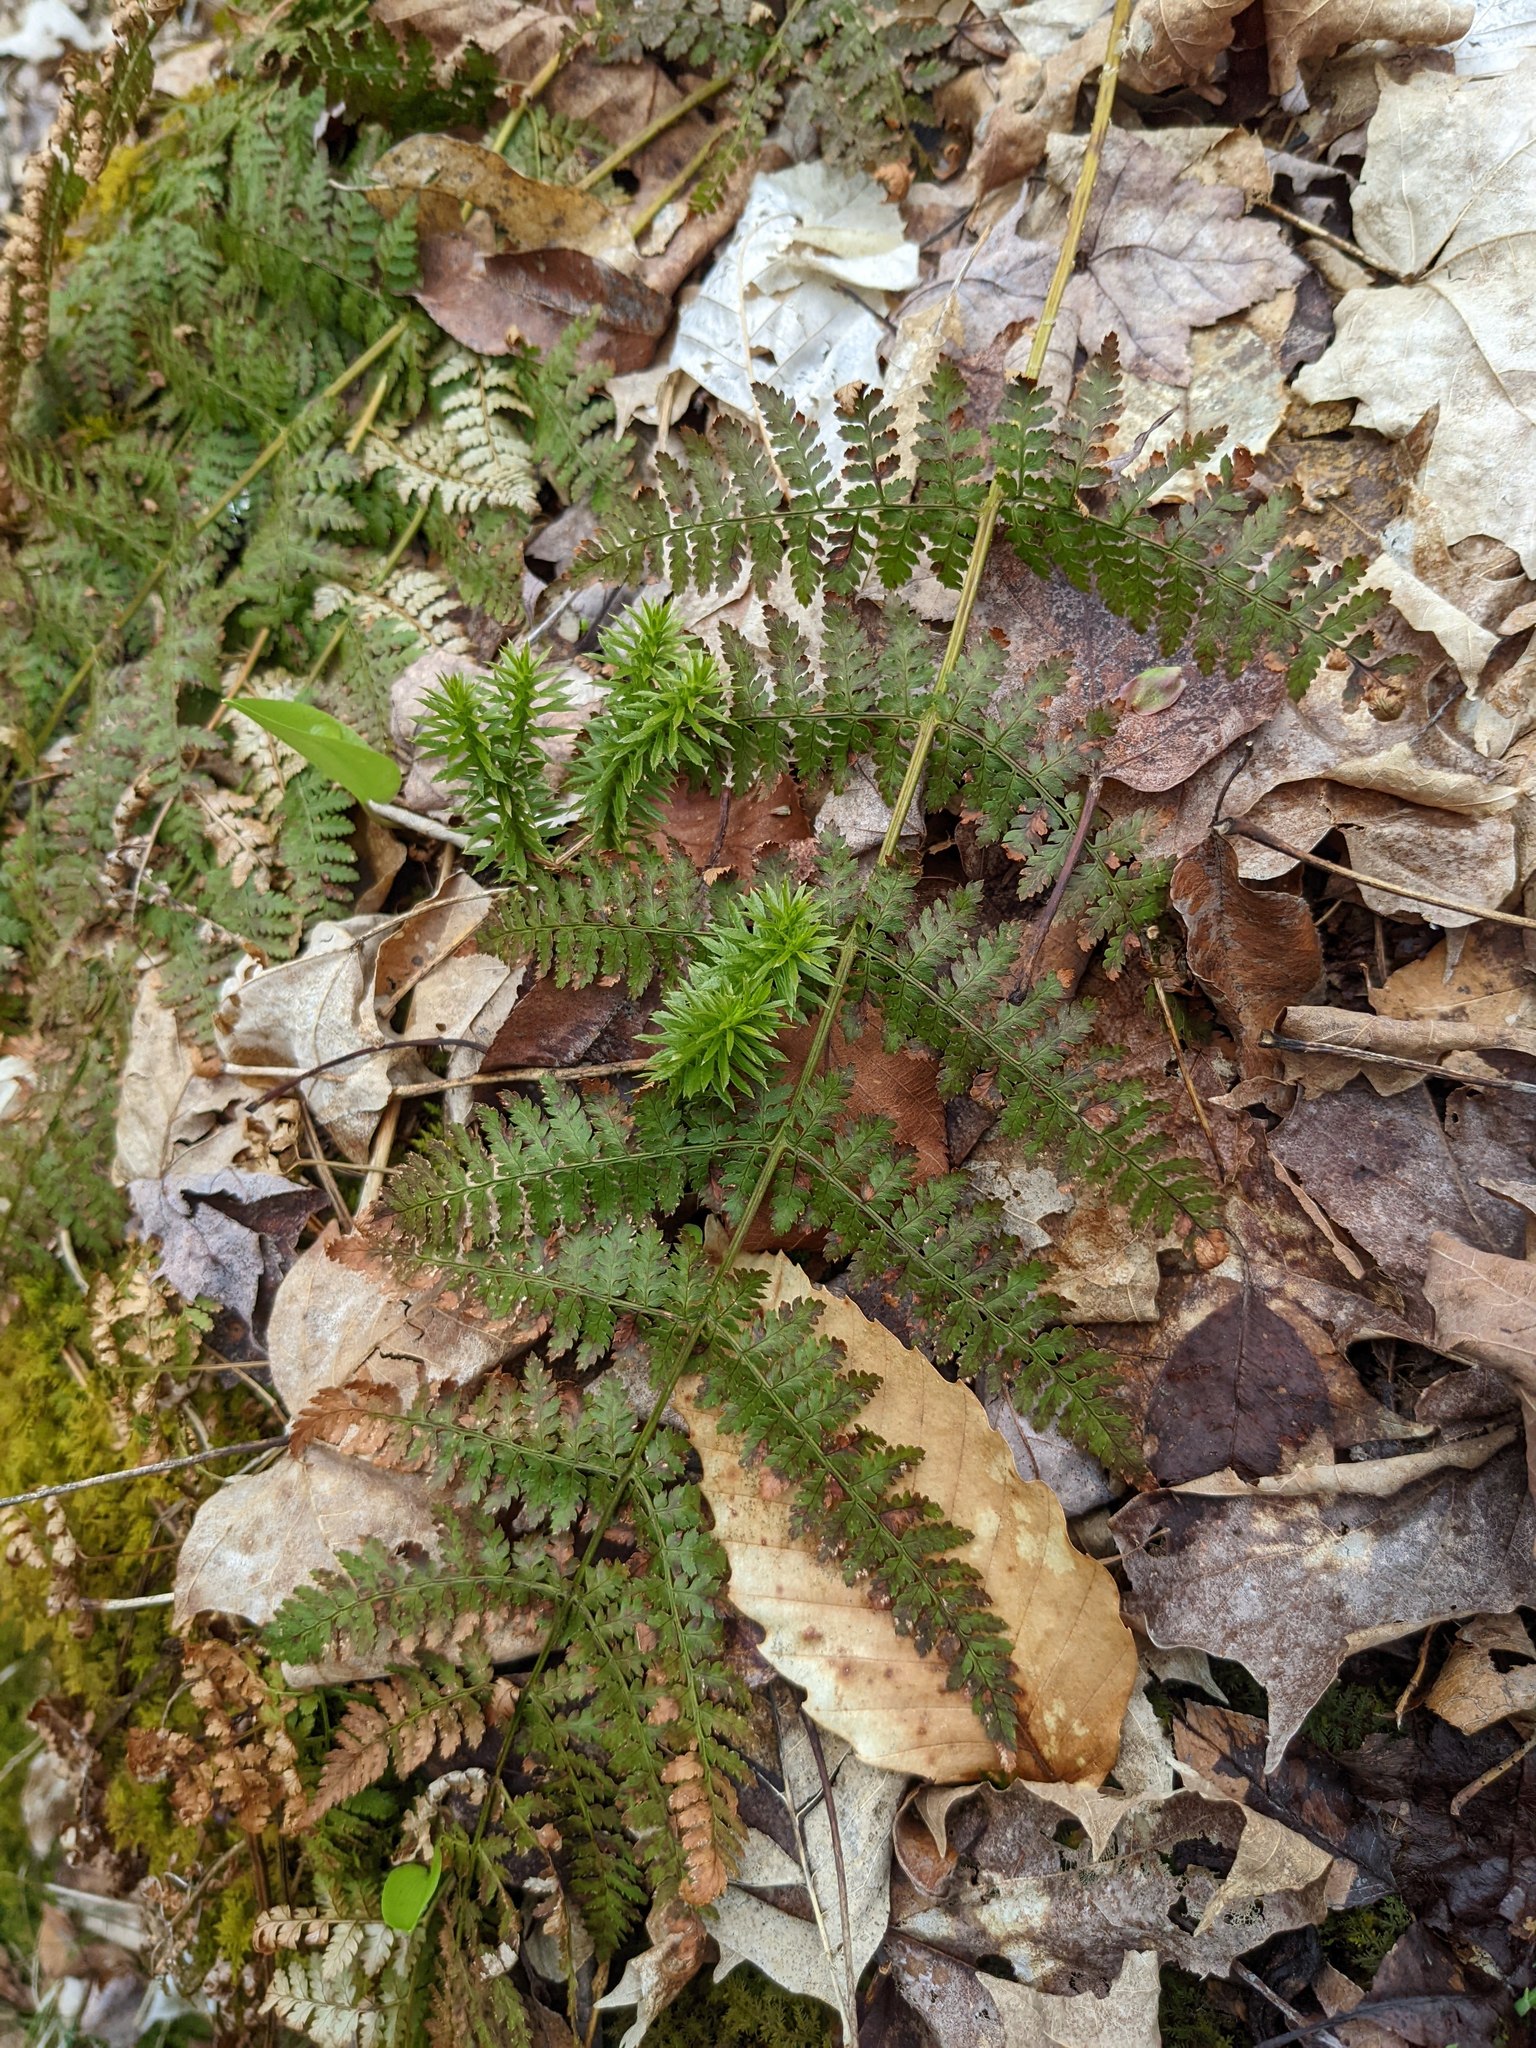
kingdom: Plantae
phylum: Tracheophyta
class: Polypodiopsida
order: Polypodiales
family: Dryopteridaceae
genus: Dryopteris
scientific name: Dryopteris intermedia
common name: Evergreen wood fern
